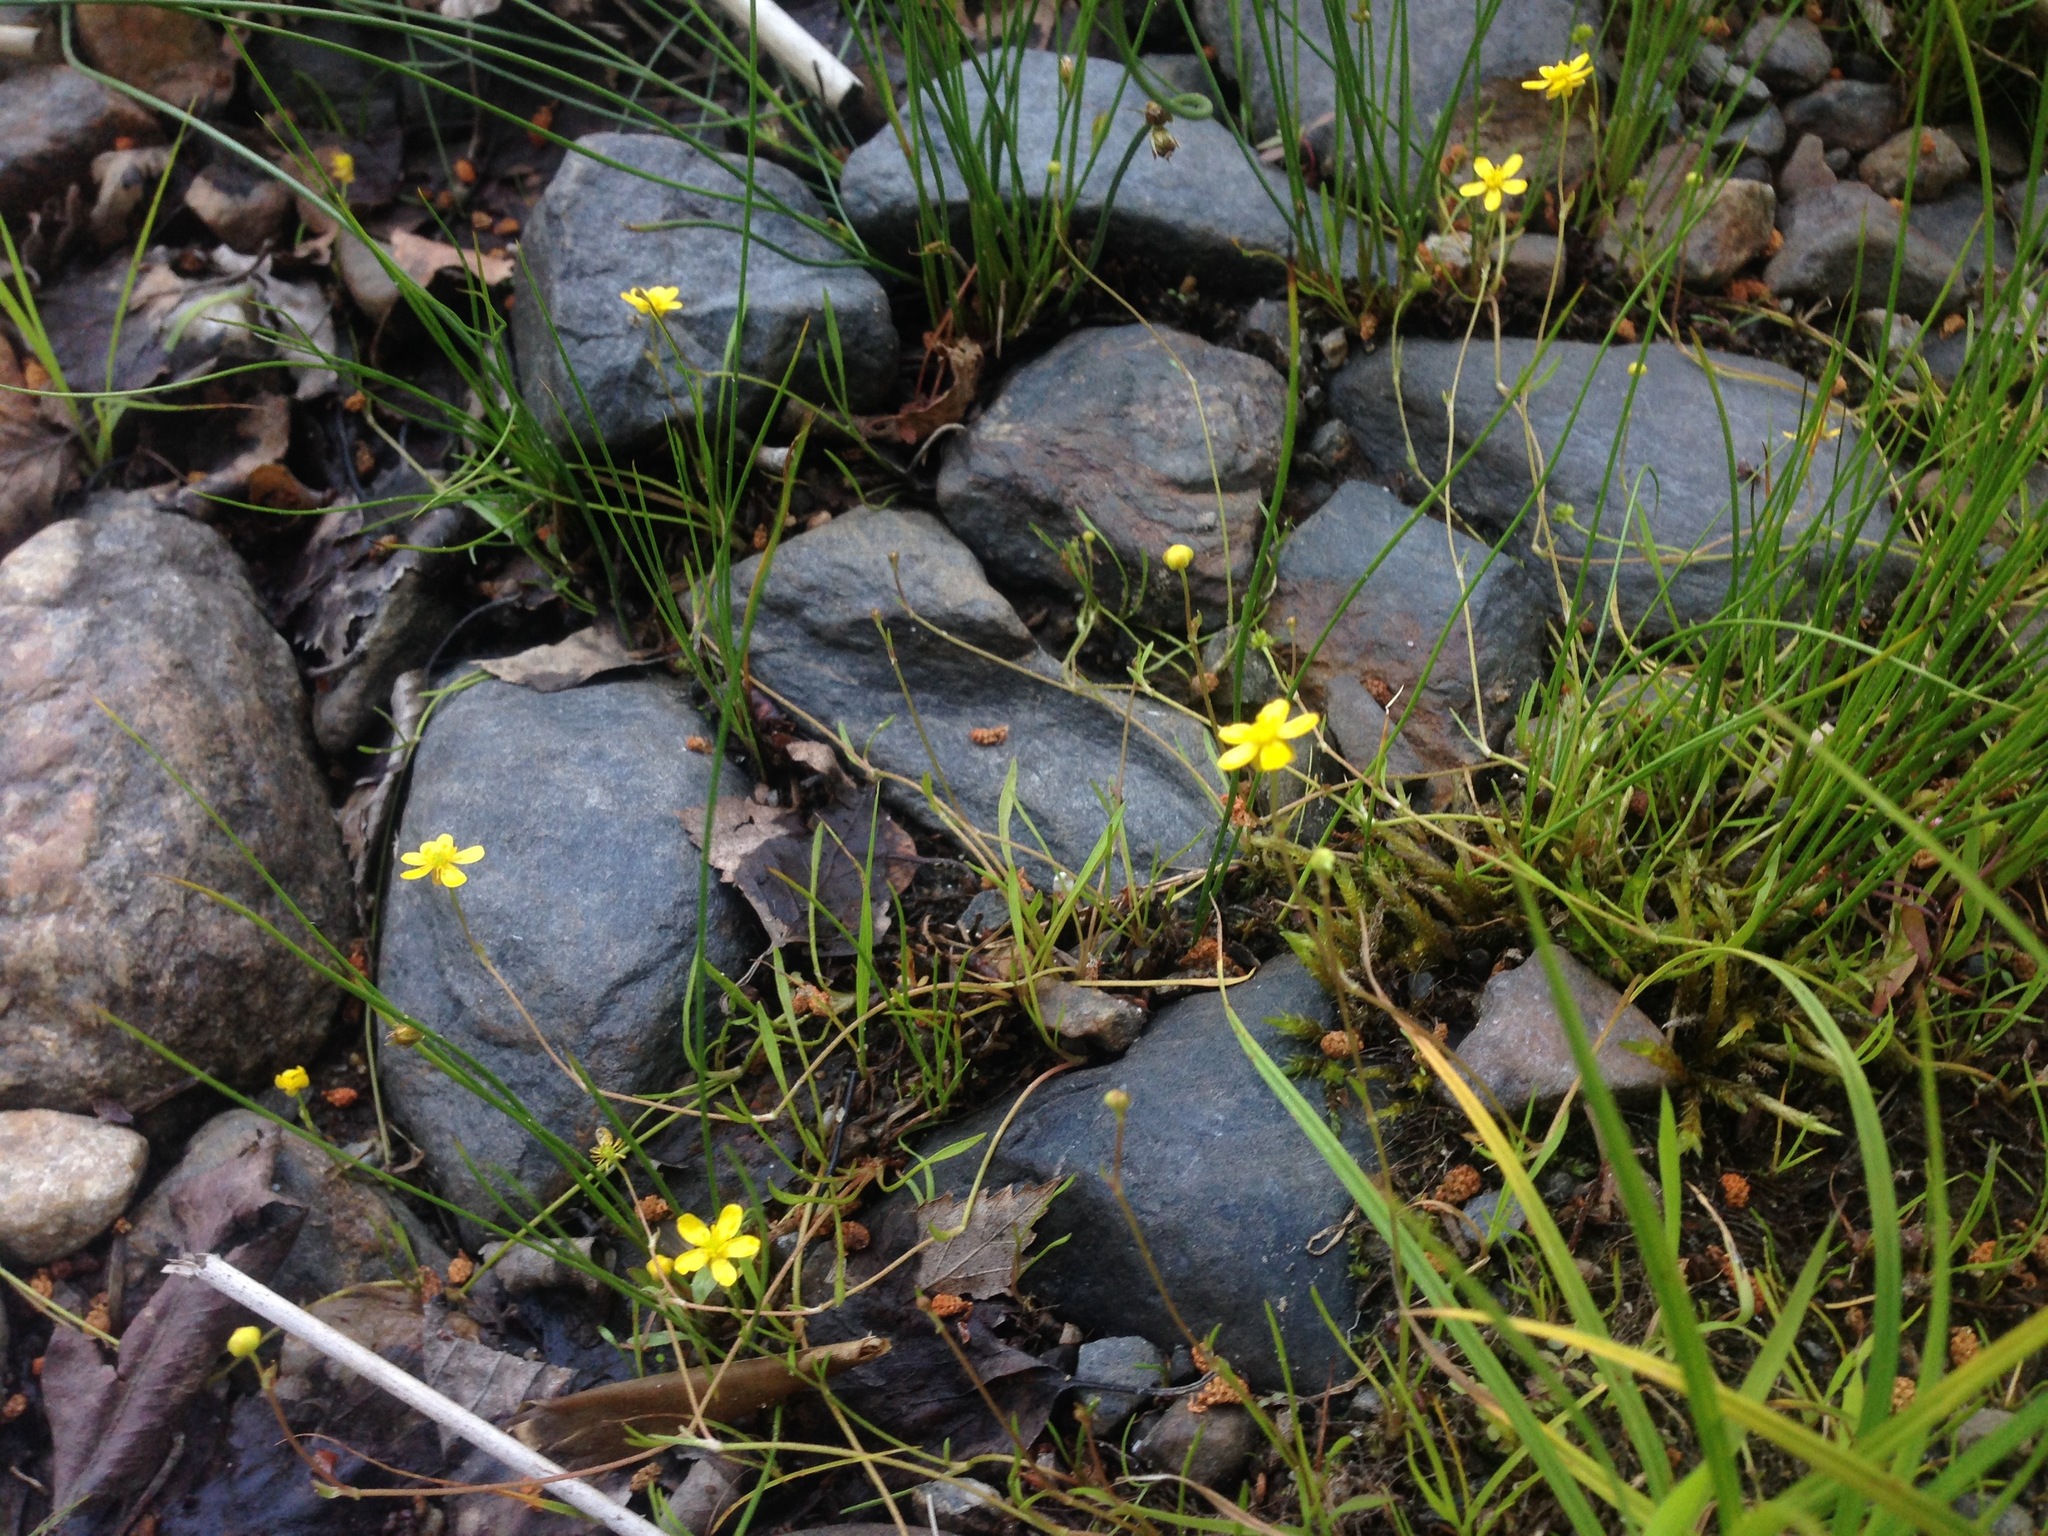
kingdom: Plantae
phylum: Tracheophyta
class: Magnoliopsida
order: Ranunculales
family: Ranunculaceae
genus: Ranunculus
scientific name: Ranunculus flammula
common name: Lesser spearwort
